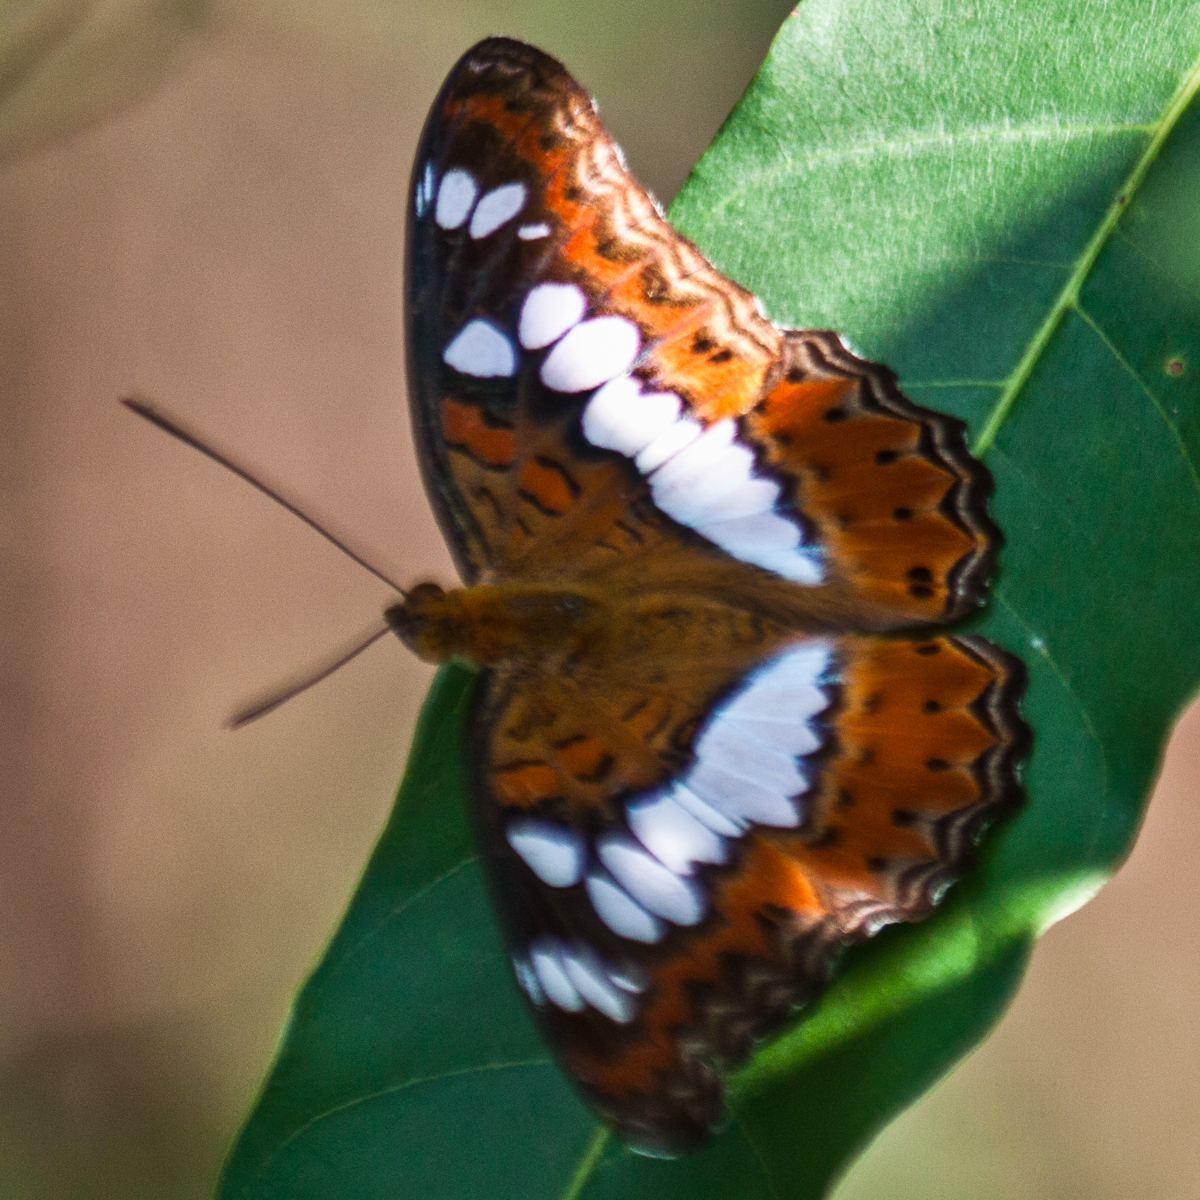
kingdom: Animalia
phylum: Arthropoda
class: Insecta
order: Lepidoptera
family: Nymphalidae
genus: Limenitis
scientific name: Limenitis Moduza procris
